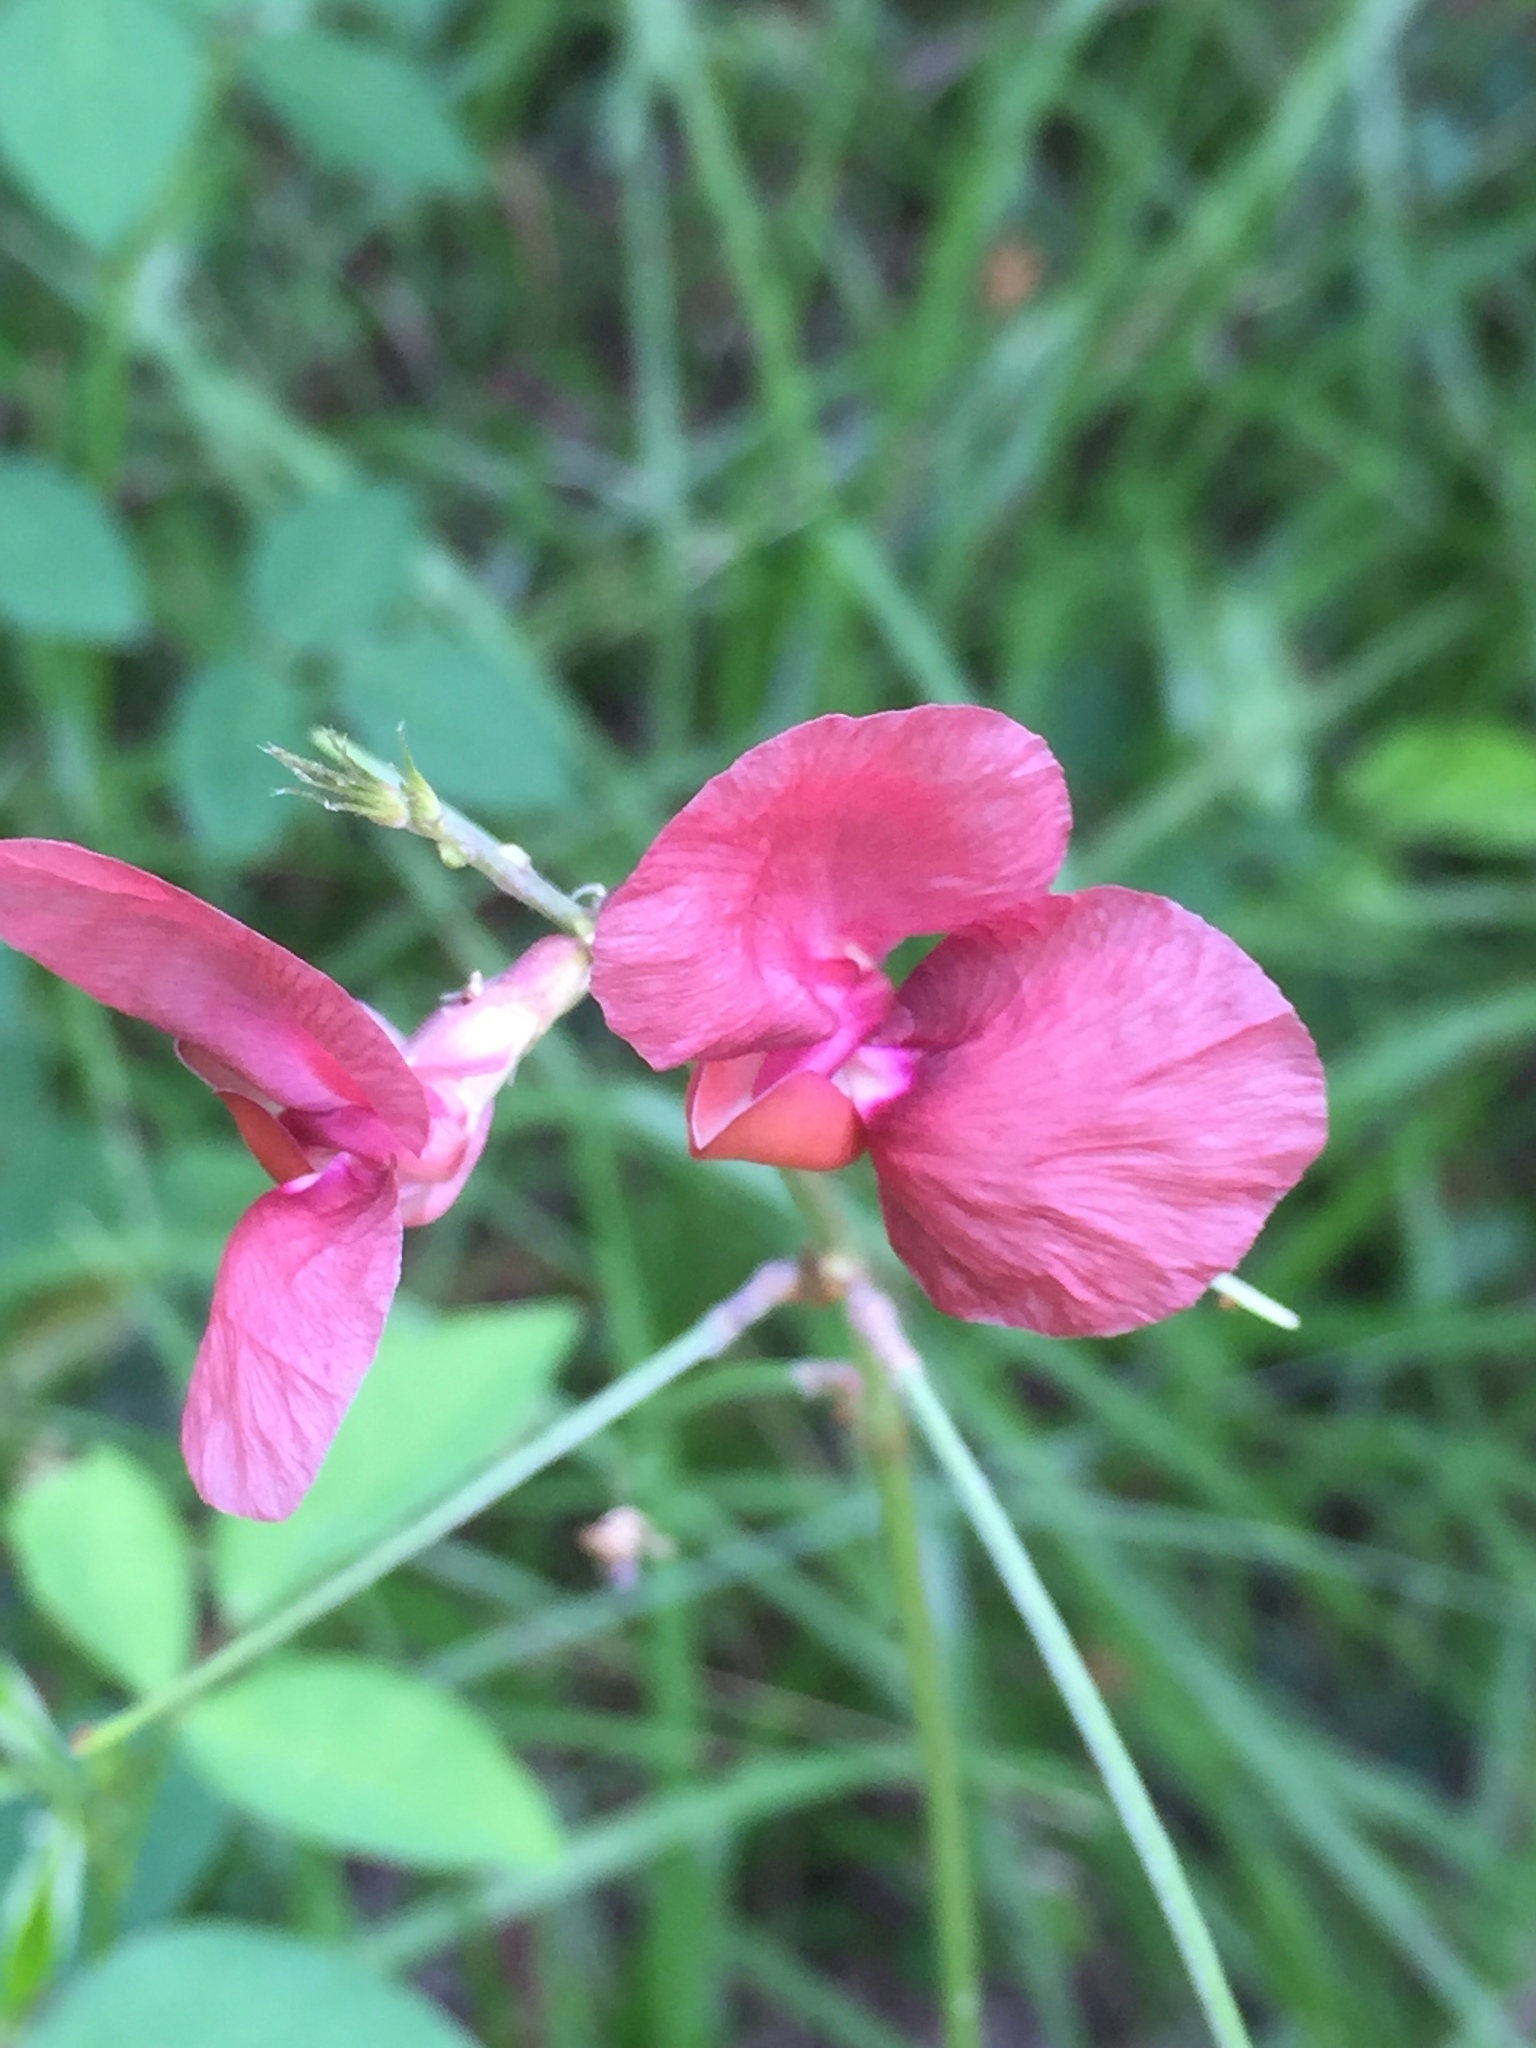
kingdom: Plantae
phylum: Tracheophyta
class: Magnoliopsida
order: Fabales
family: Fabaceae
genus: Macroptilium
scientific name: Macroptilium lathyroides
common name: Wild bushbean
